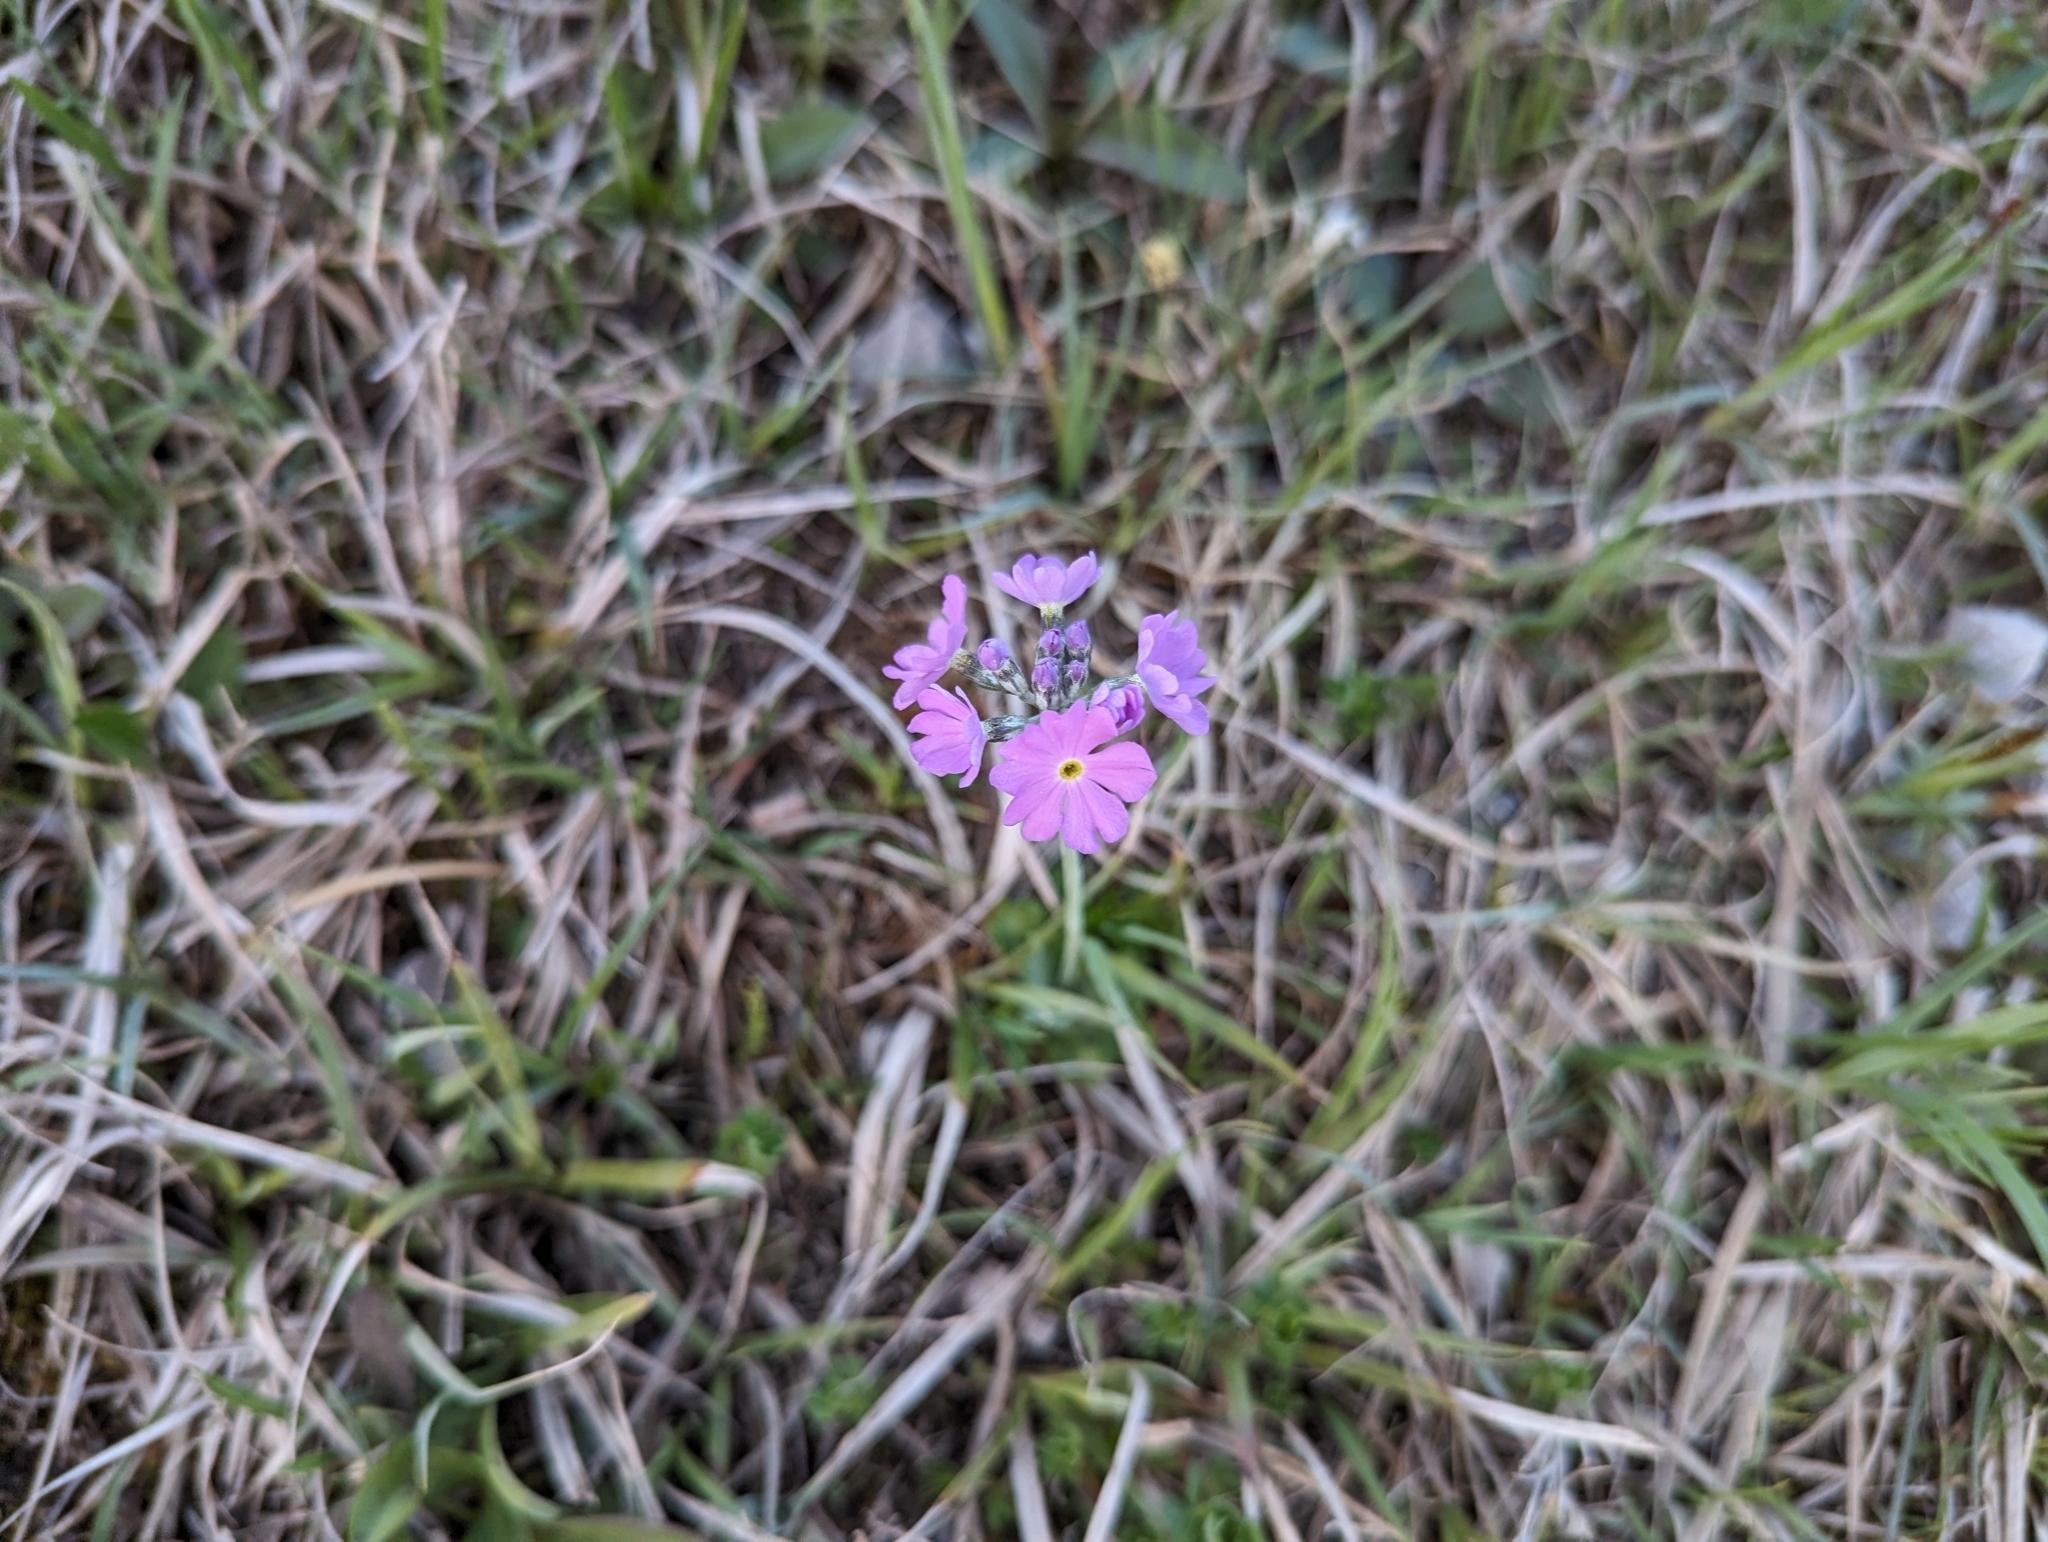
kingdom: Plantae
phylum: Tracheophyta
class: Magnoliopsida
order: Ericales
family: Primulaceae
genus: Primula
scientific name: Primula farinosa
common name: Bird's-eye primrose
